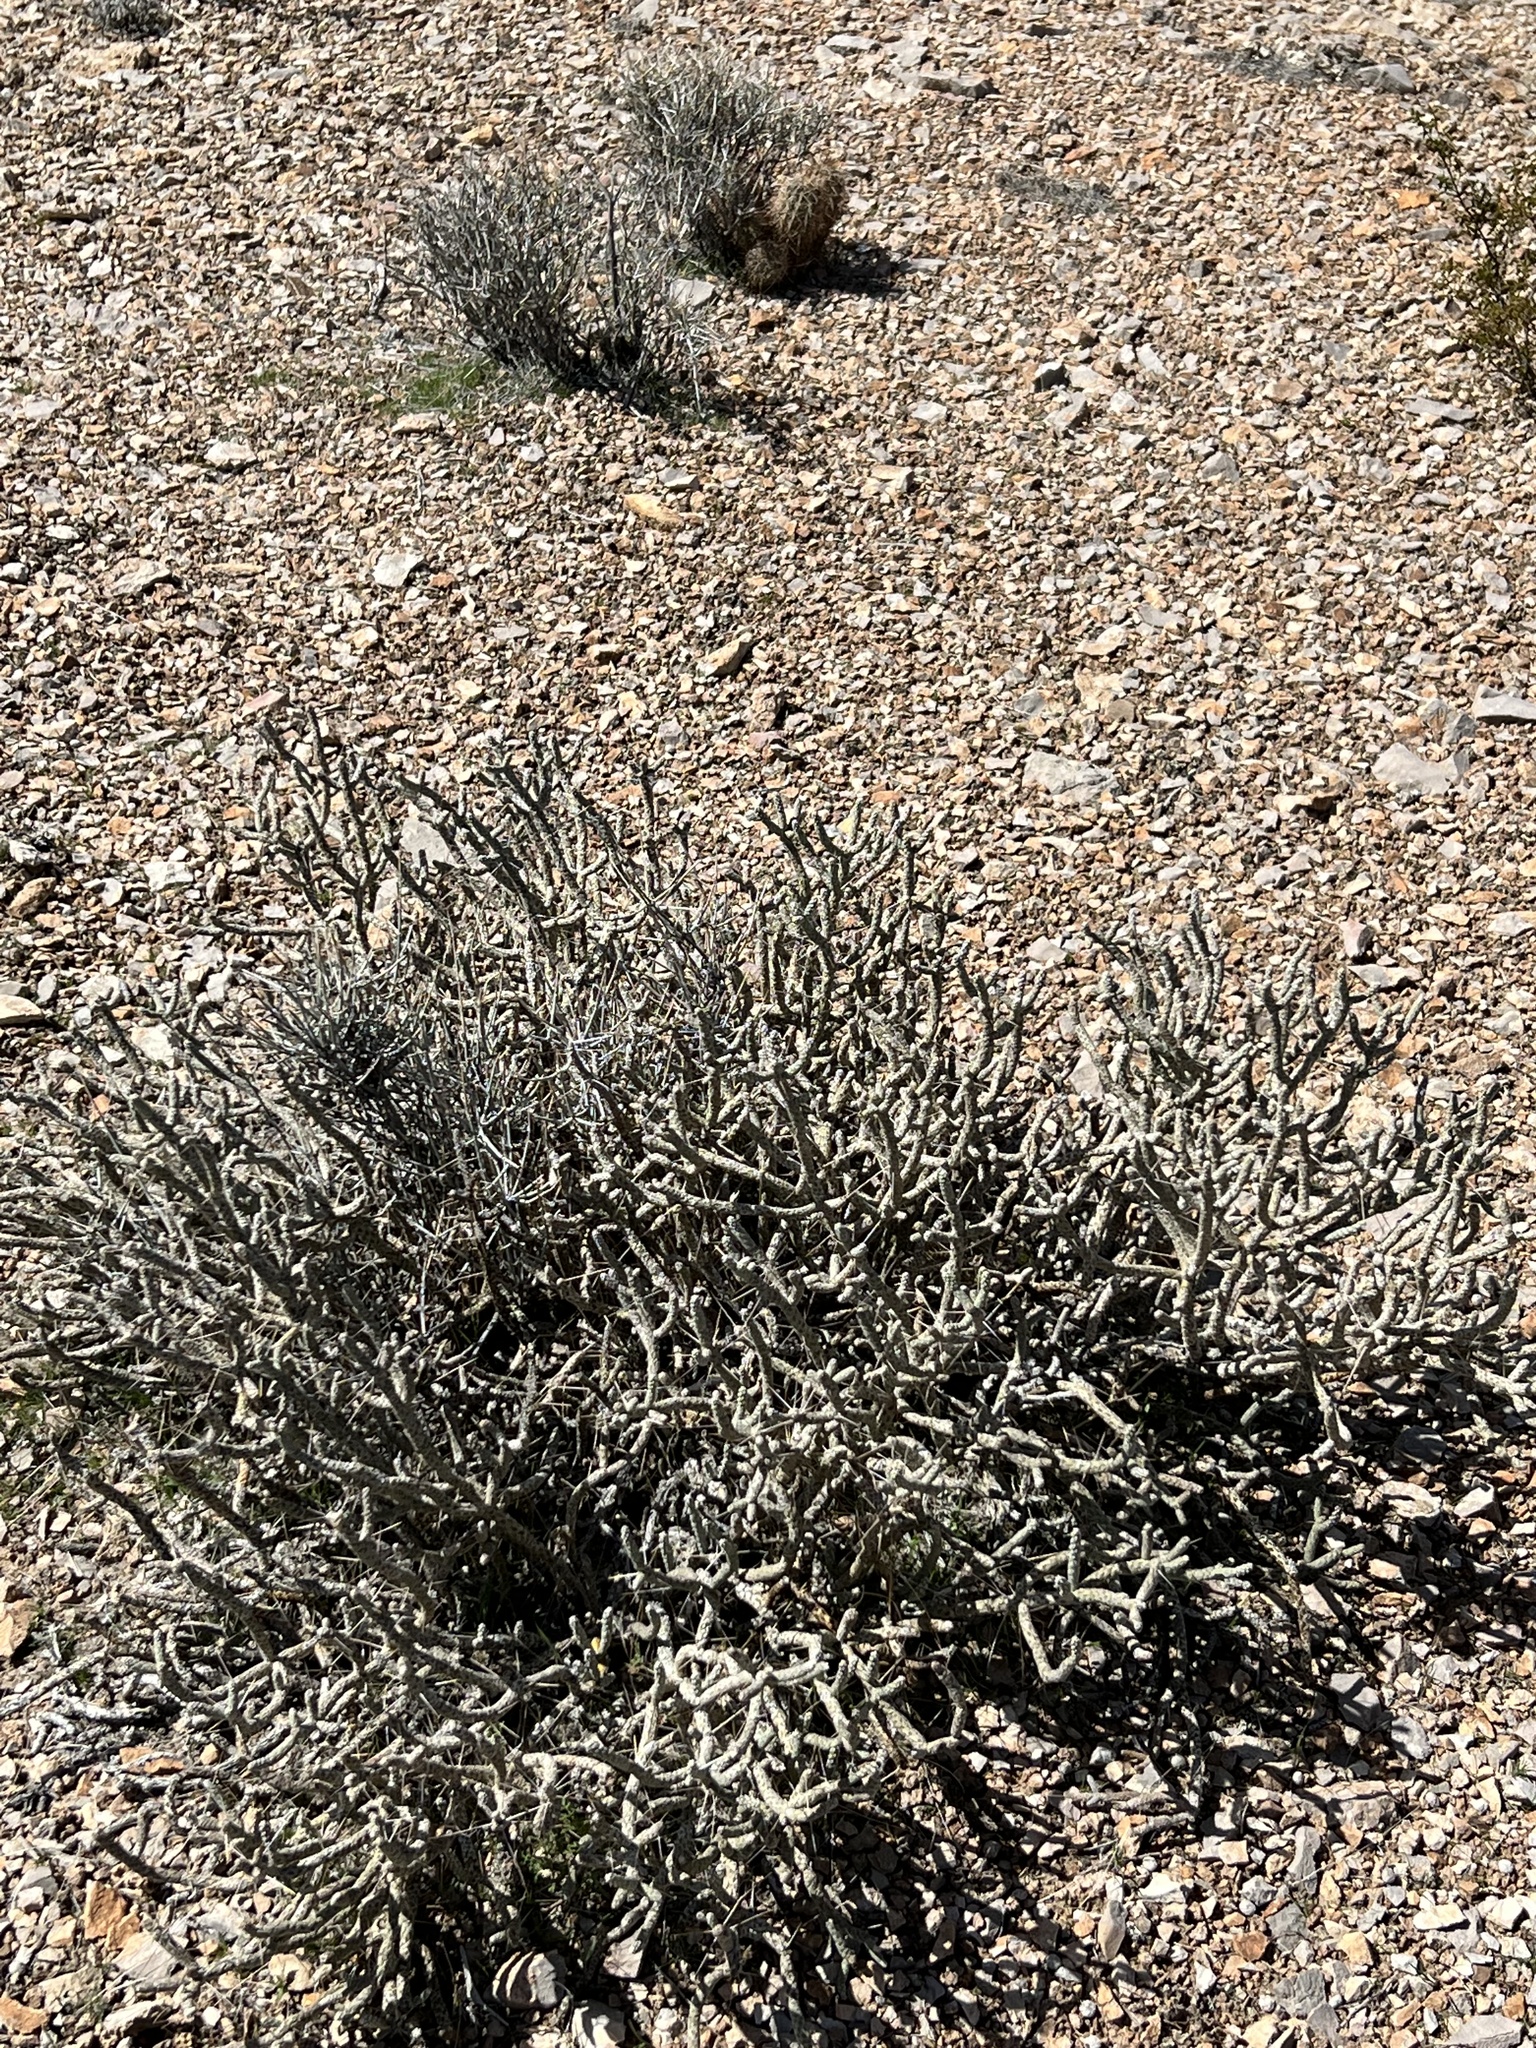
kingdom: Plantae
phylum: Tracheophyta
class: Magnoliopsida
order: Caryophyllales
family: Cactaceae
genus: Cylindropuntia
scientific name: Cylindropuntia ramosissima
